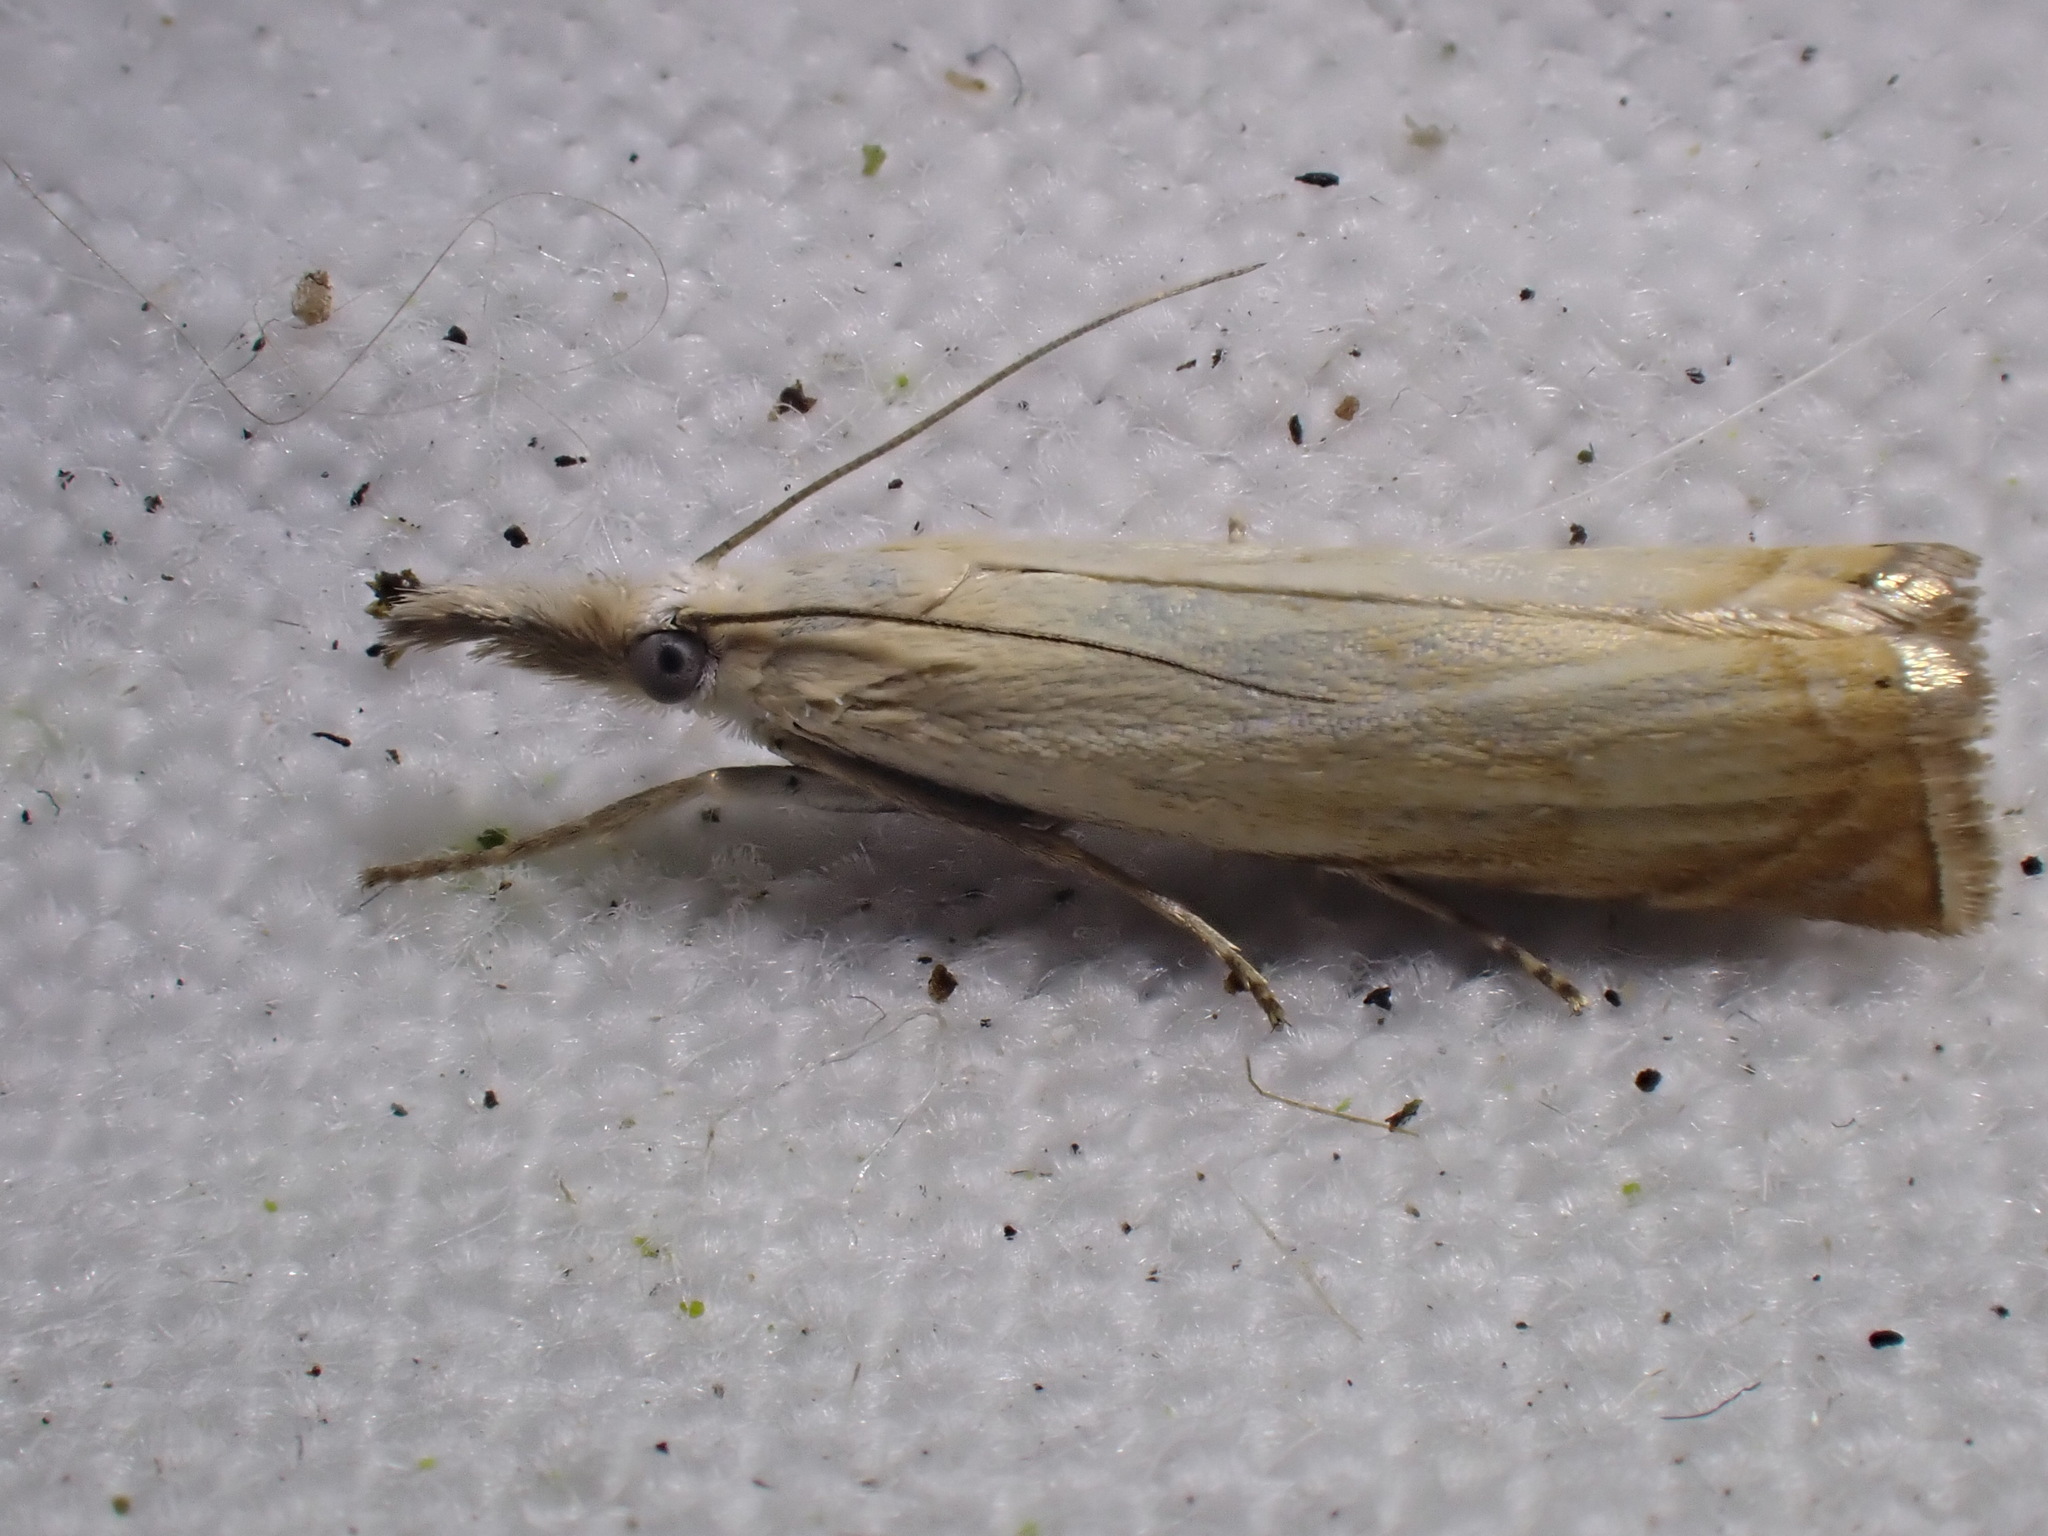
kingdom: Animalia
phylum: Arthropoda
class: Insecta
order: Lepidoptera
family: Crambidae
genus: Chrysoteuchia
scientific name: Chrysoteuchia culmella
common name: Garden grass-veneer
